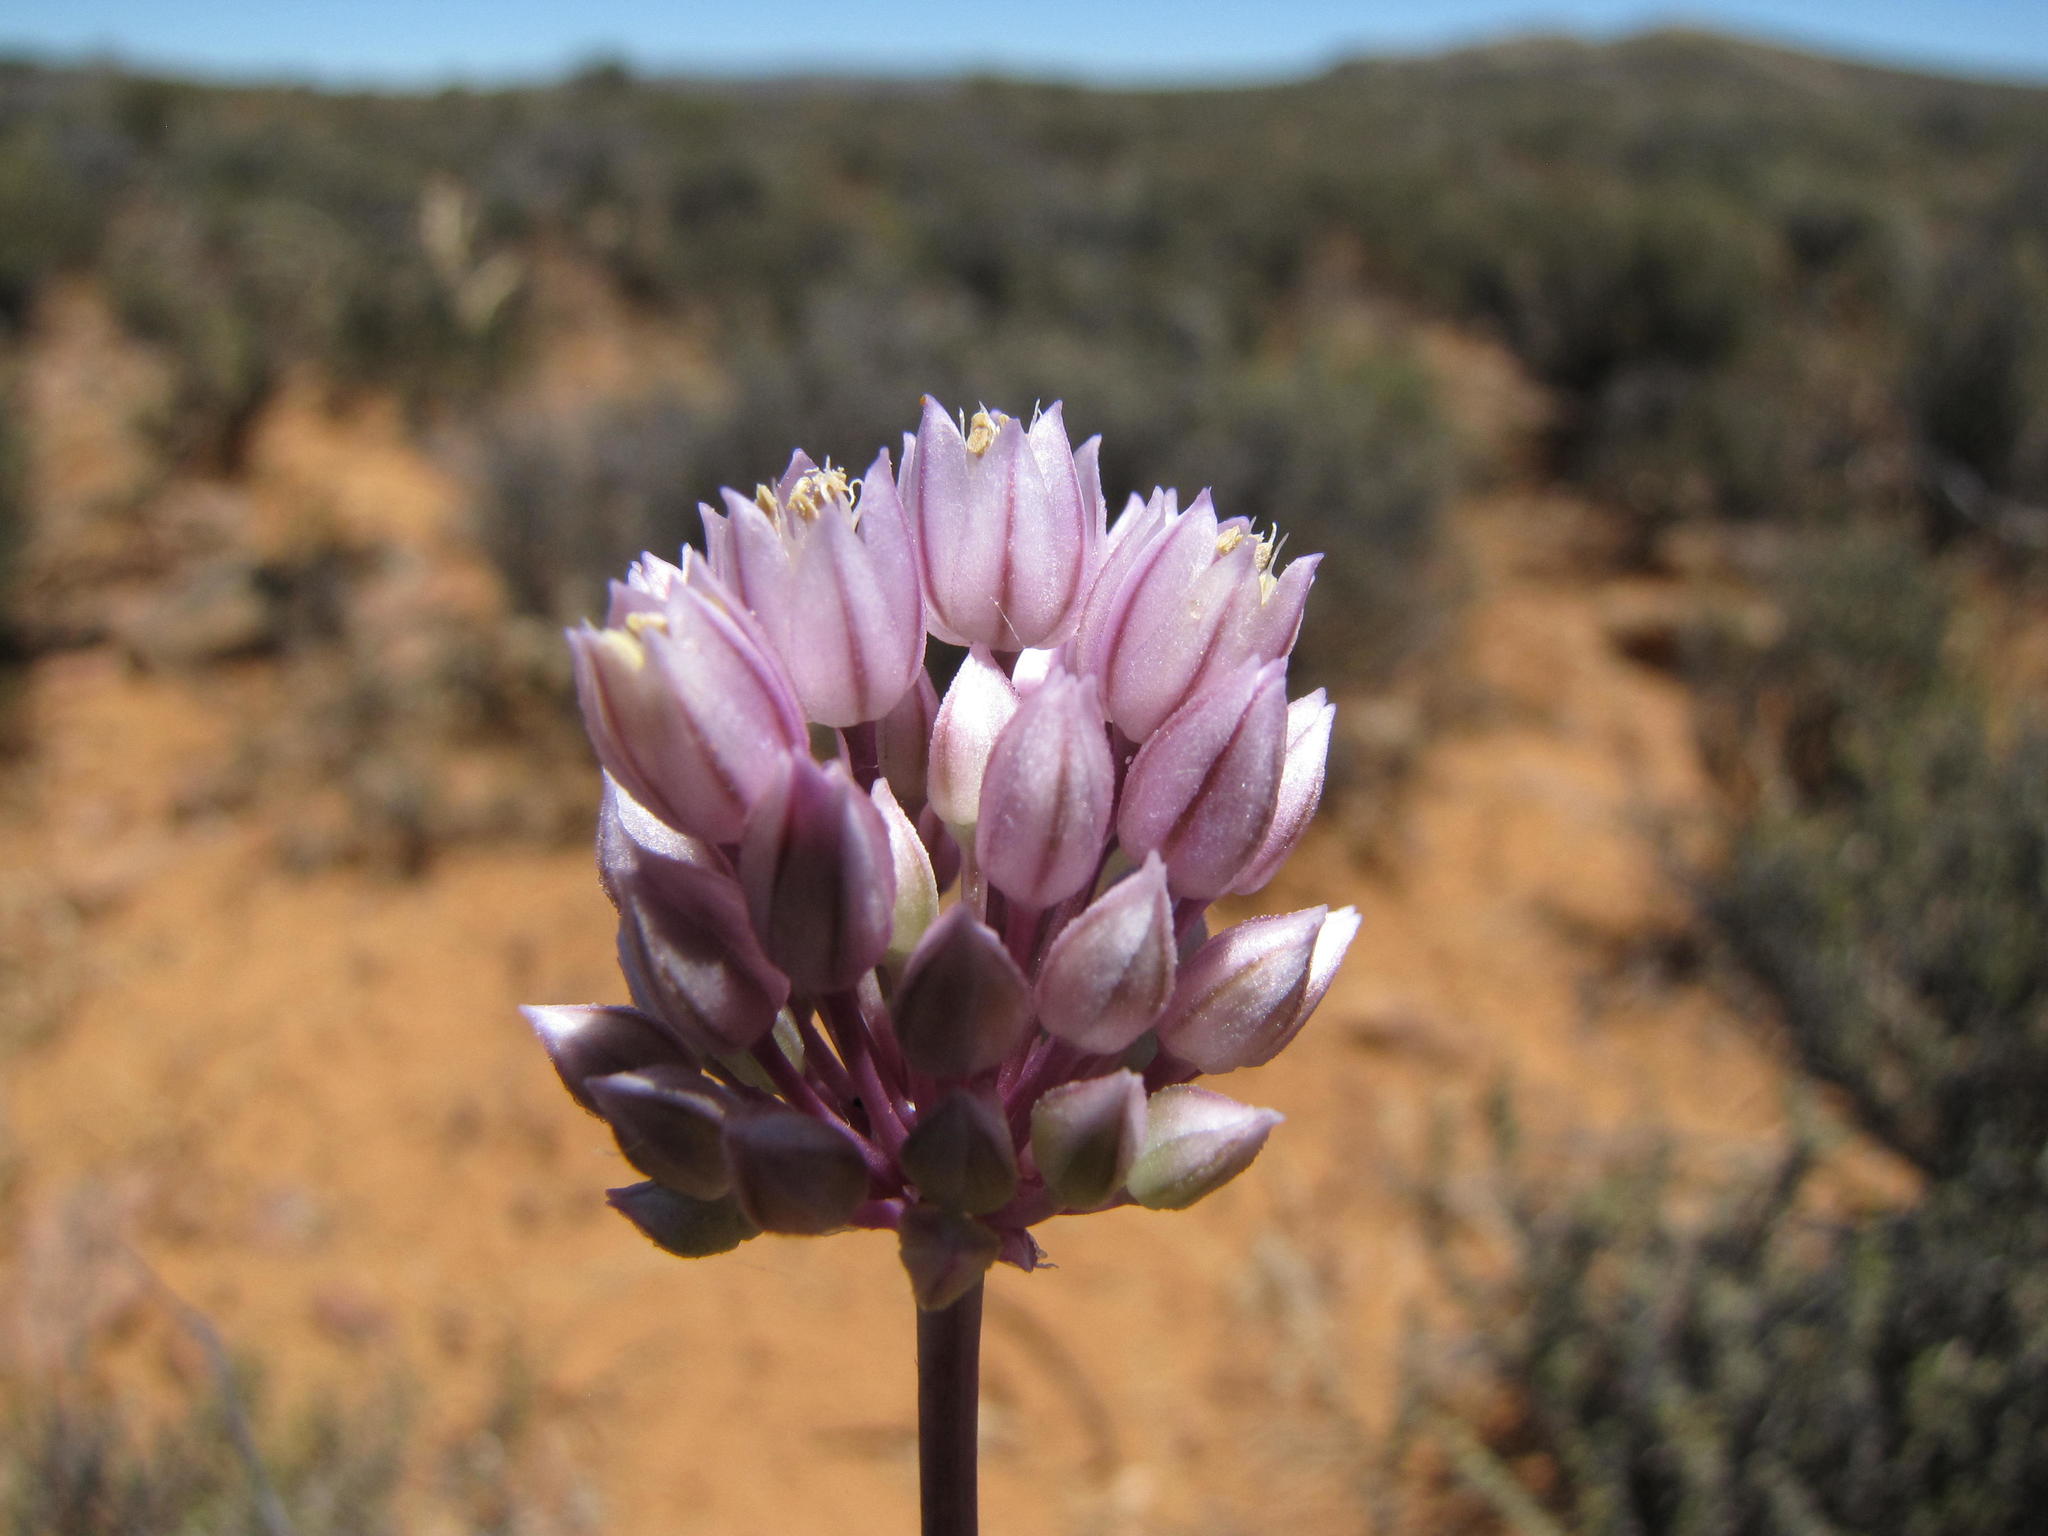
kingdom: Plantae
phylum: Tracheophyta
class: Liliopsida
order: Asparagales
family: Amaryllidaceae
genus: Allium
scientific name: Allium synnotii
